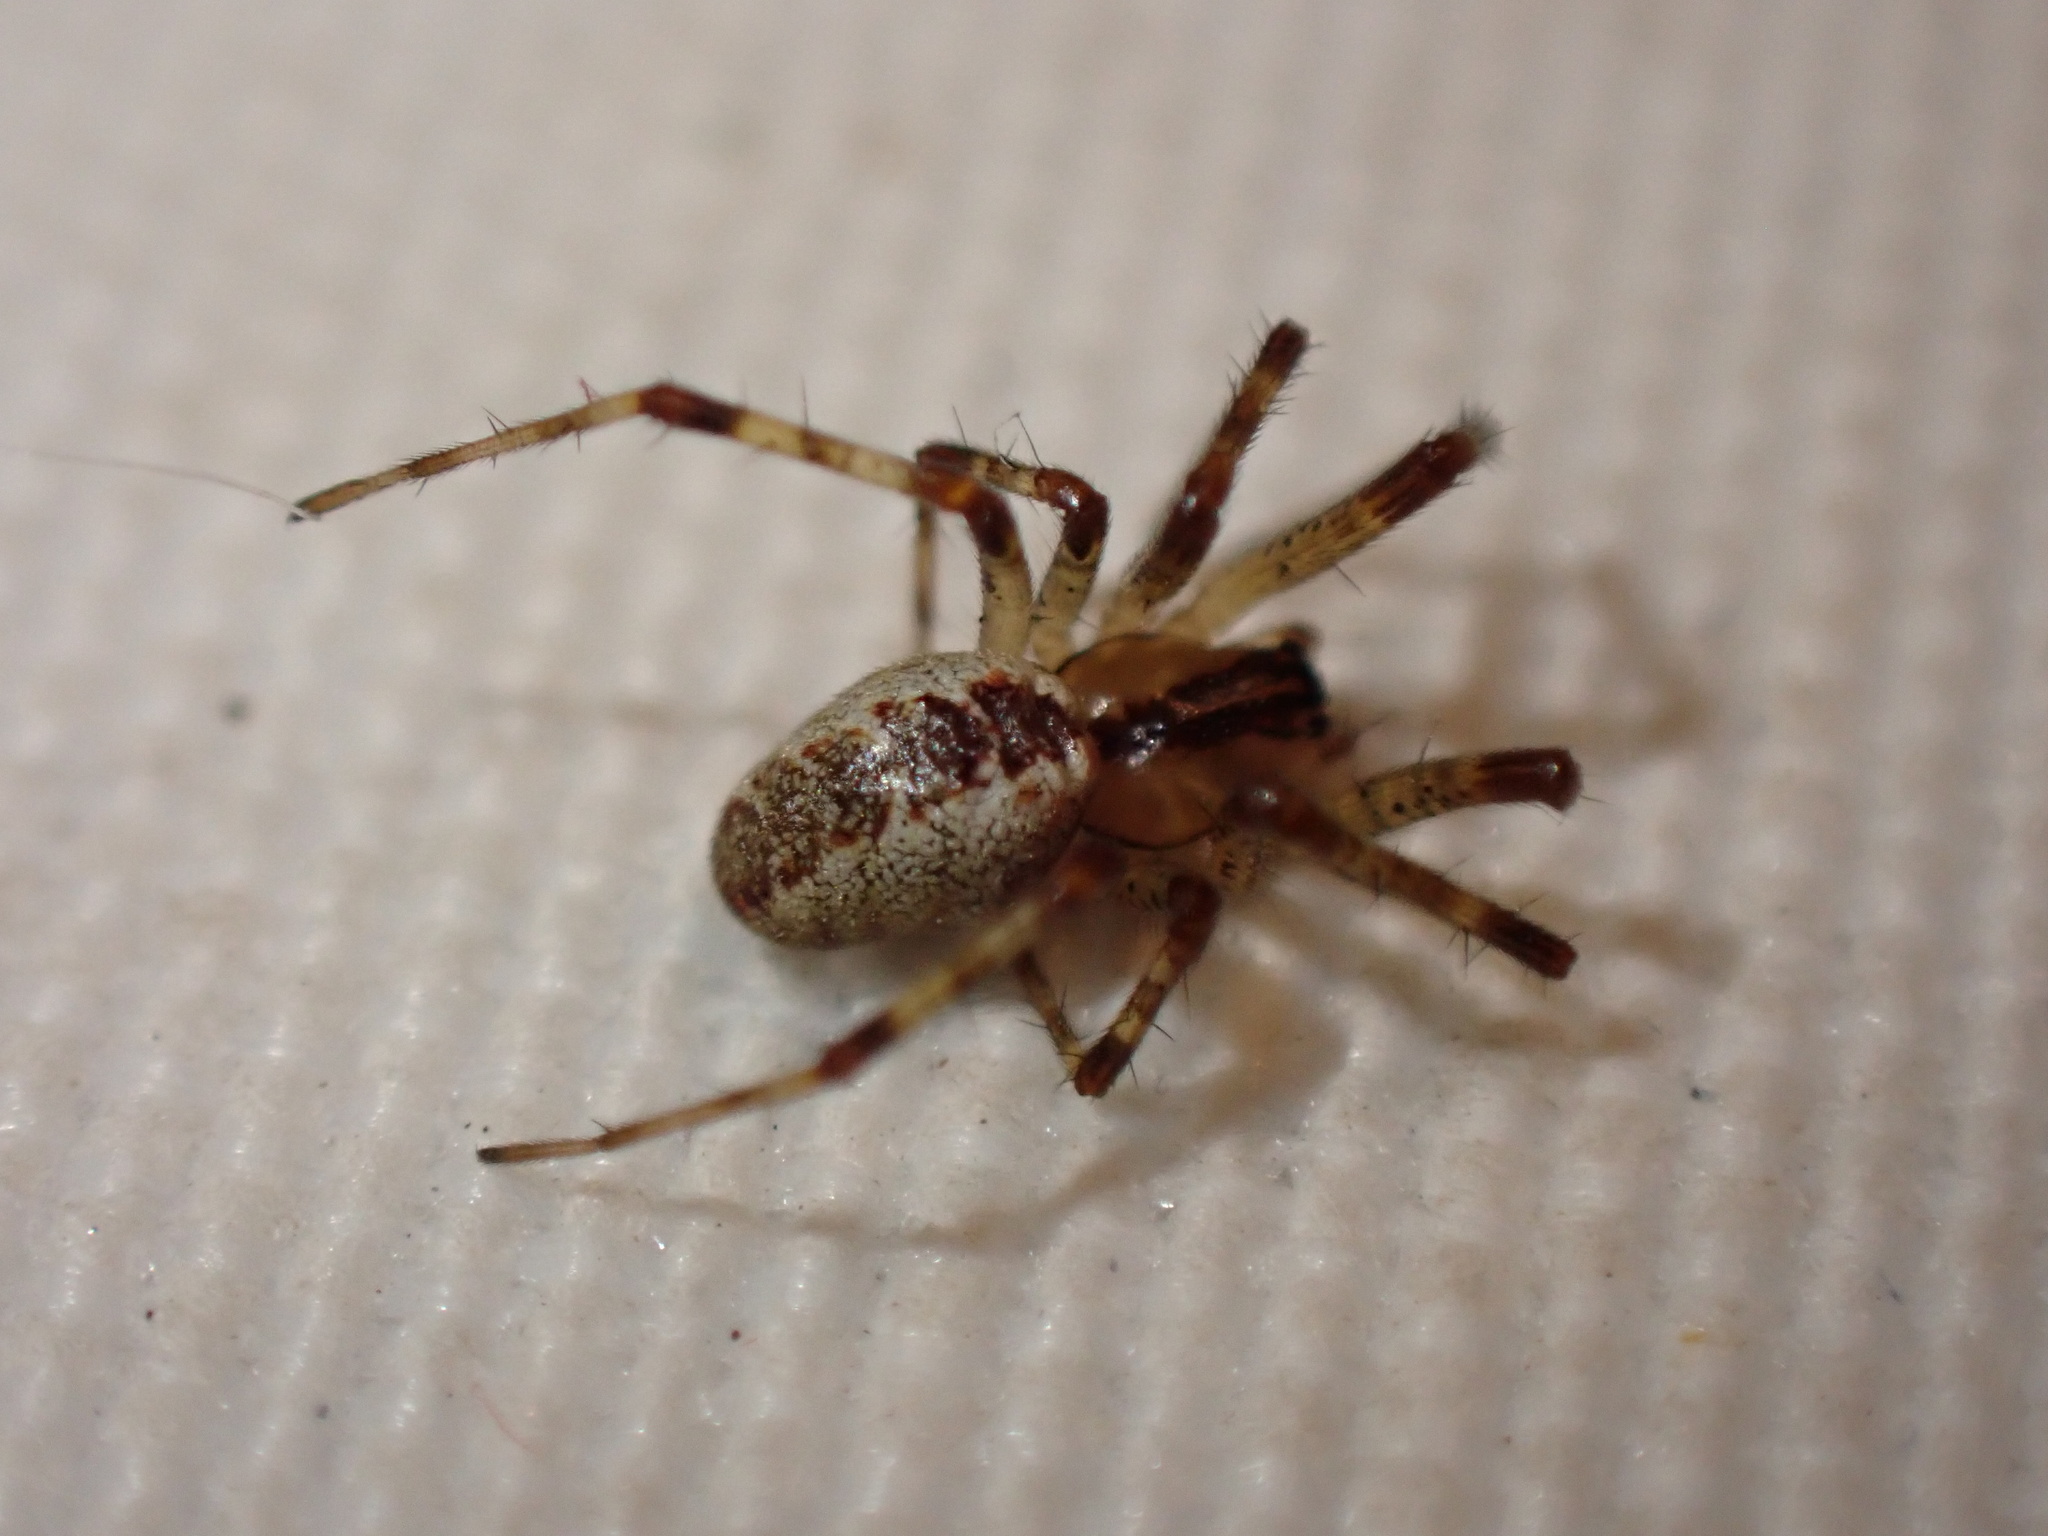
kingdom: Animalia
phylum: Arthropoda
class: Arachnida
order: Araneae
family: Linyphiidae
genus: Pityohyphantes
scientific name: Pityohyphantes phrygianus
